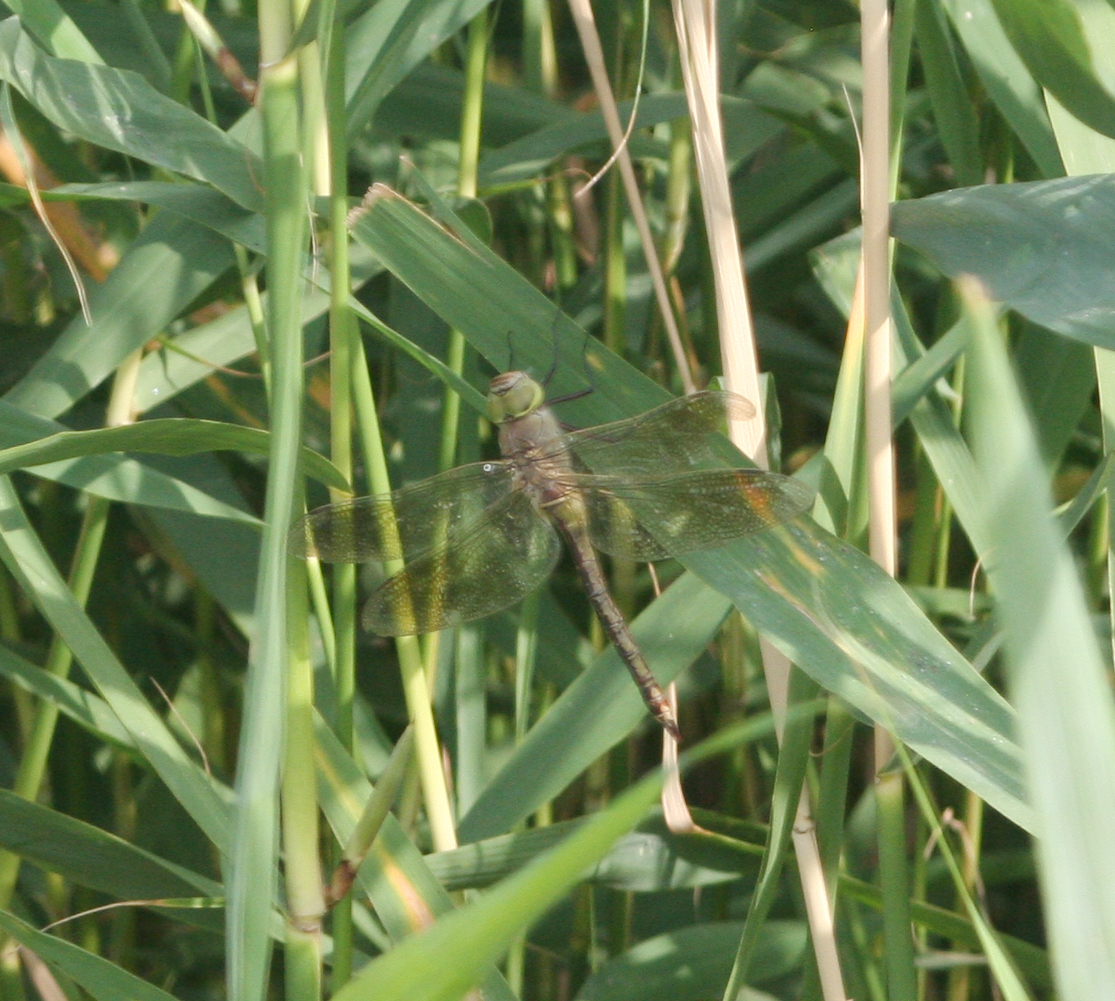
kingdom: Animalia
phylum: Arthropoda
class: Insecta
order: Odonata
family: Aeshnidae
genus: Anax
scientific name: Anax parthenope
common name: Lesser emperor
